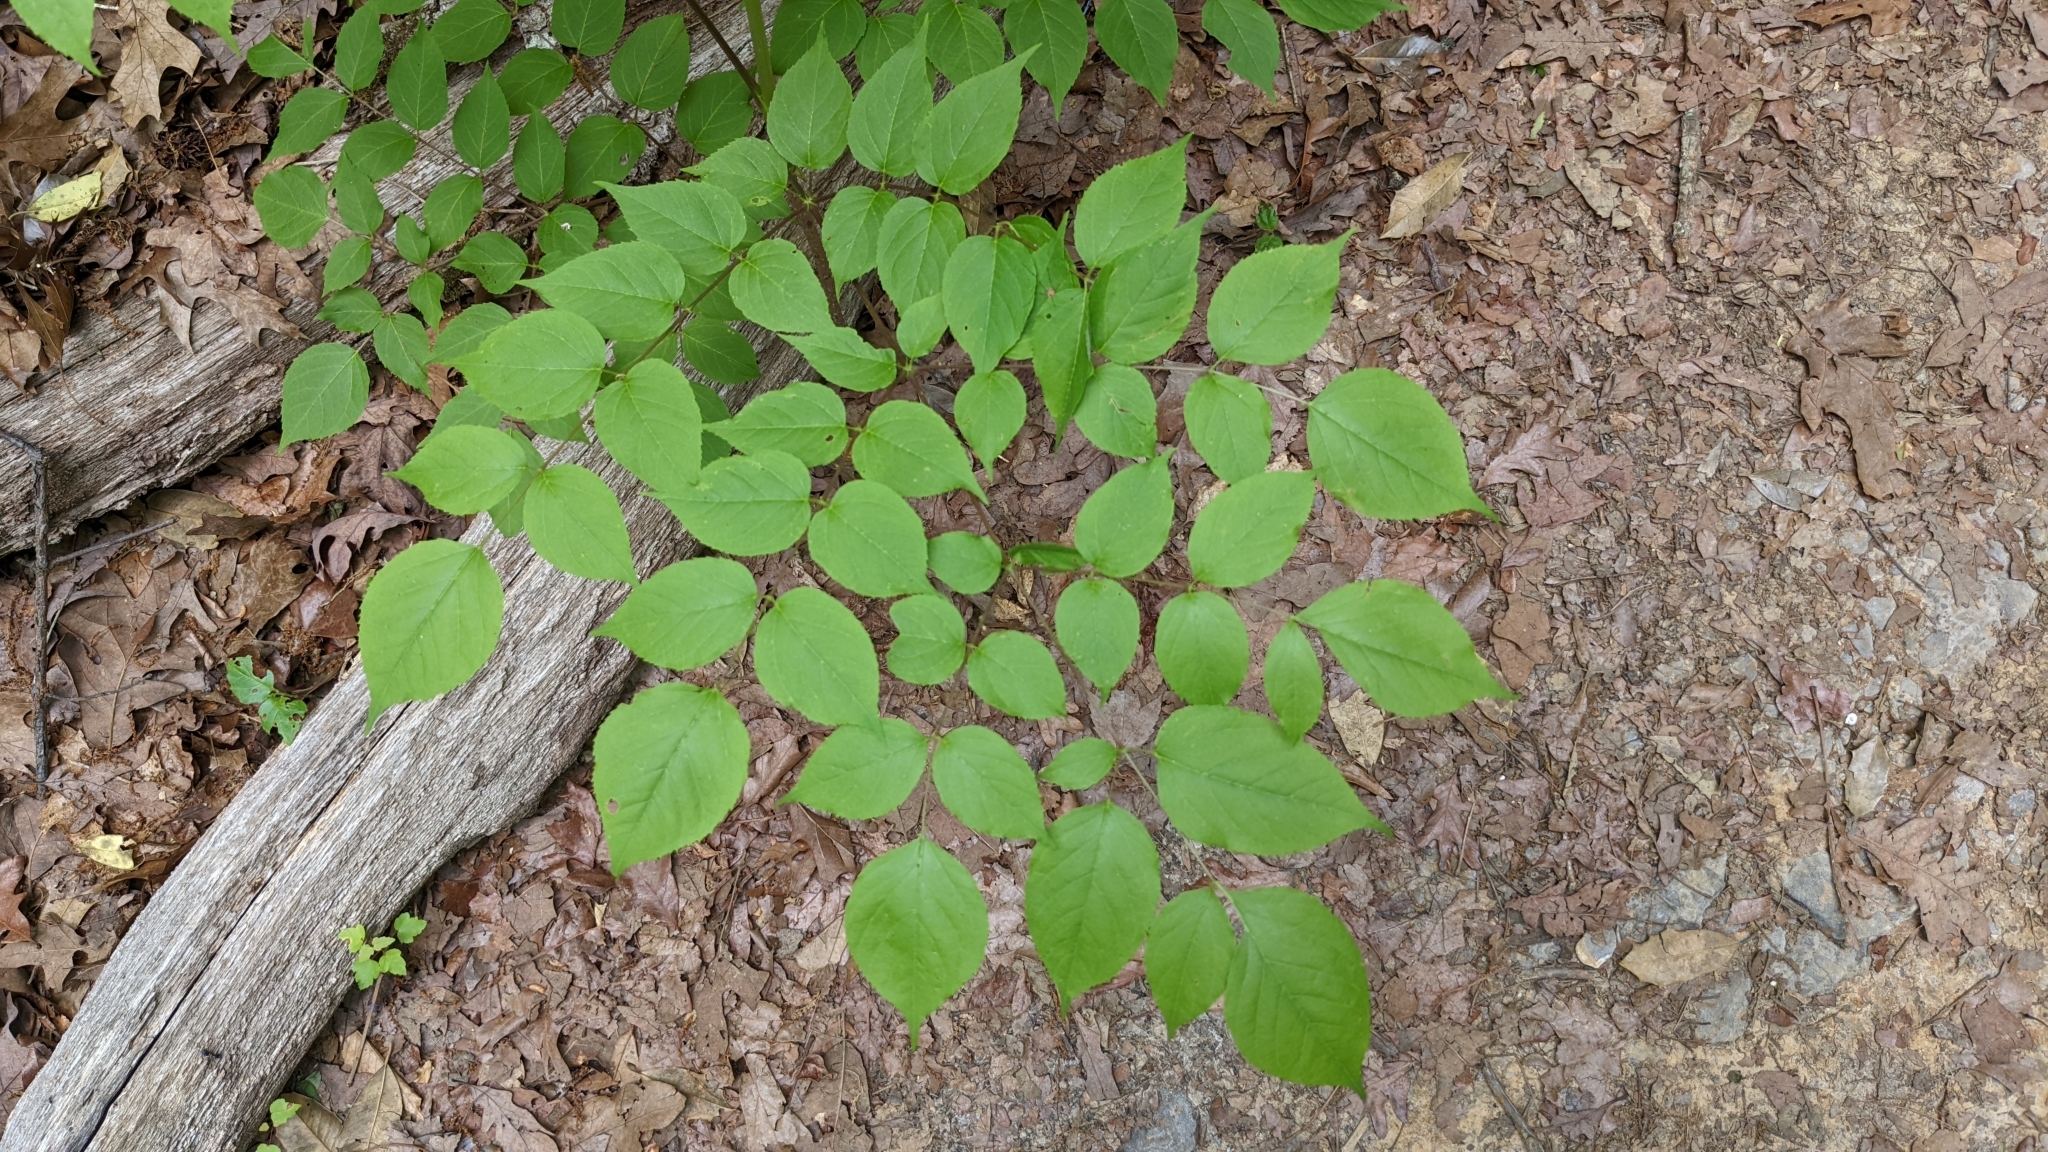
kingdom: Plantae
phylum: Tracheophyta
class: Magnoliopsida
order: Apiales
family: Araliaceae
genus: Aralia
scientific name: Aralia spinosa
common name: Hercules'-club
